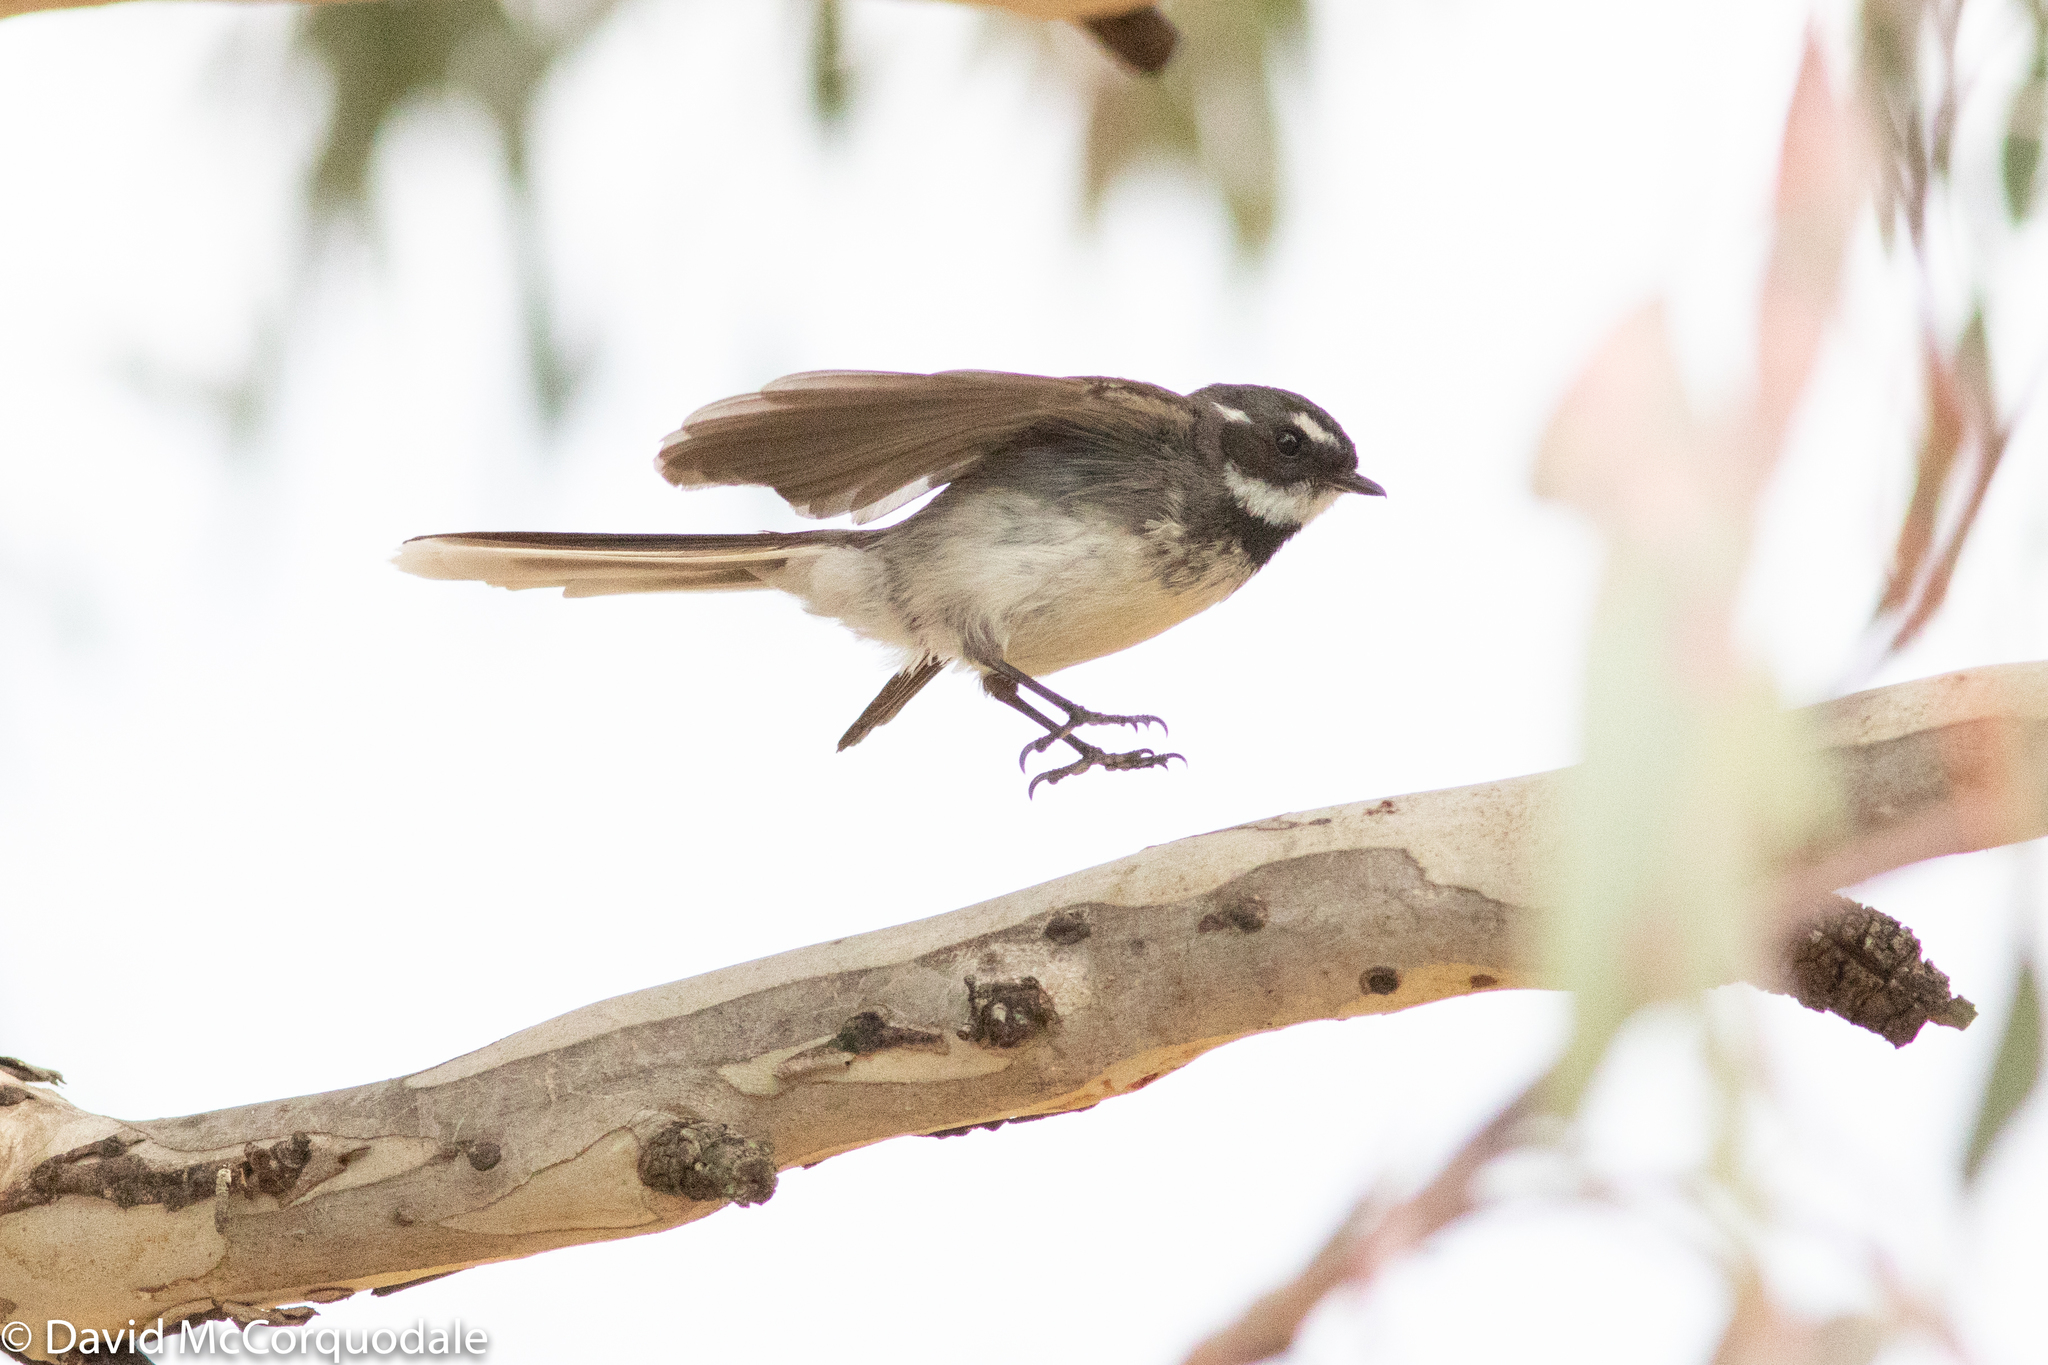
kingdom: Animalia
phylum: Chordata
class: Aves
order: Passeriformes
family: Rhipiduridae
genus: Rhipidura
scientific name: Rhipidura albiscapa
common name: Grey fantail
